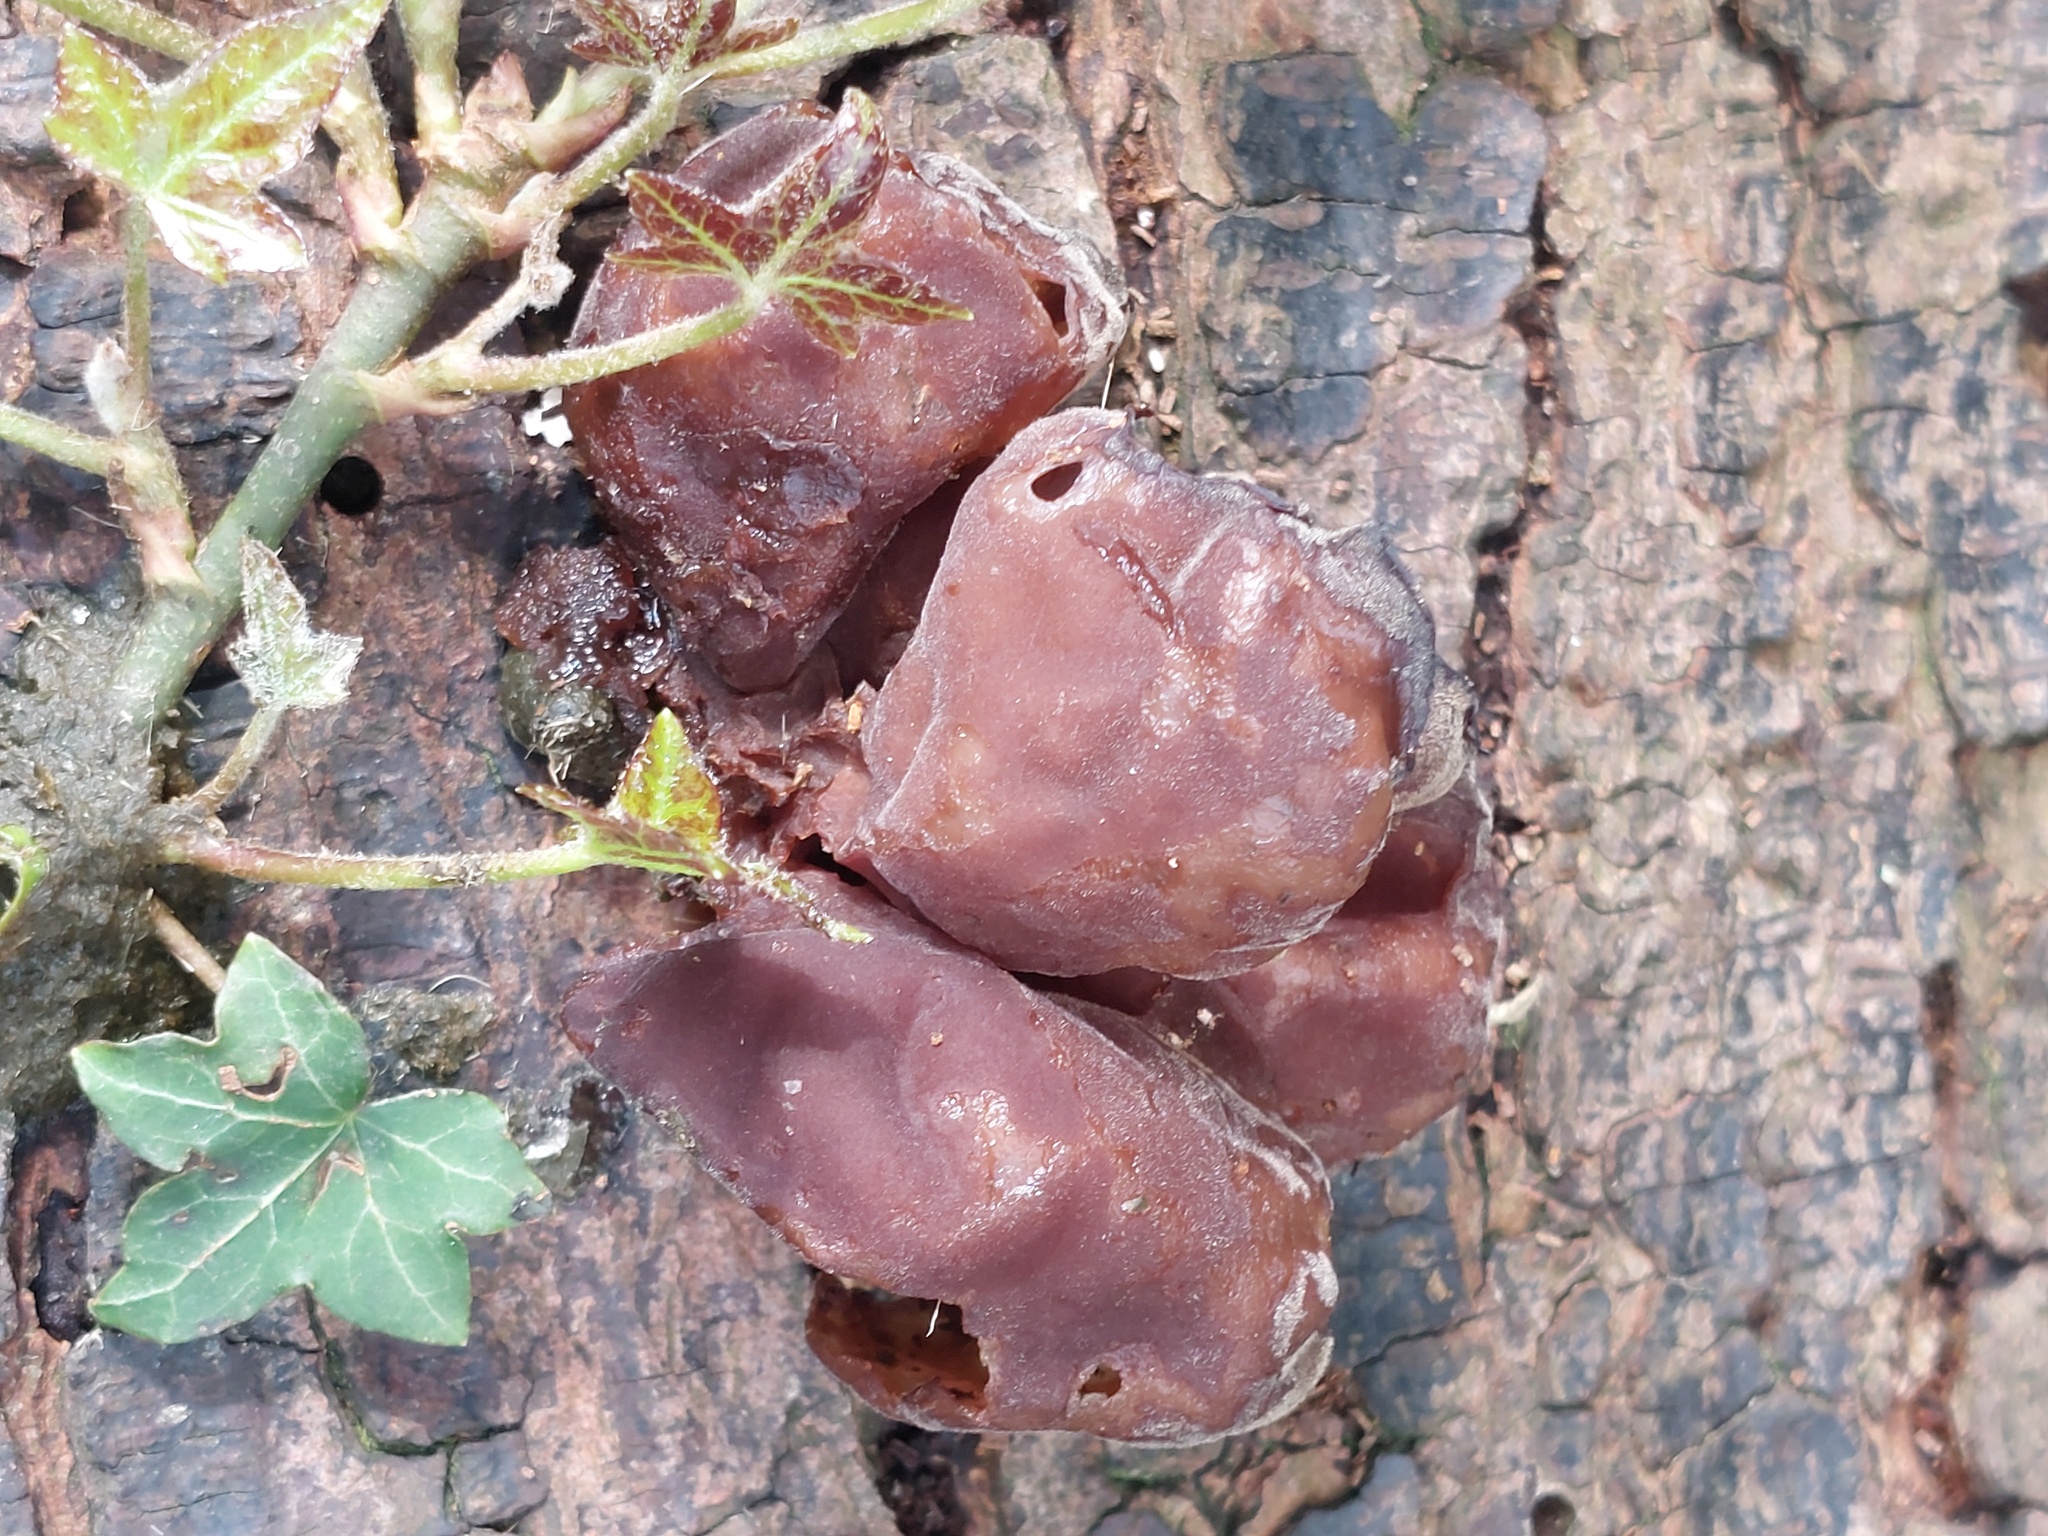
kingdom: Fungi
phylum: Basidiomycota
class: Agaricomycetes
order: Auriculariales
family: Auriculariaceae
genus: Auricularia
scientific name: Auricularia auricula-judae
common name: Jelly ear
